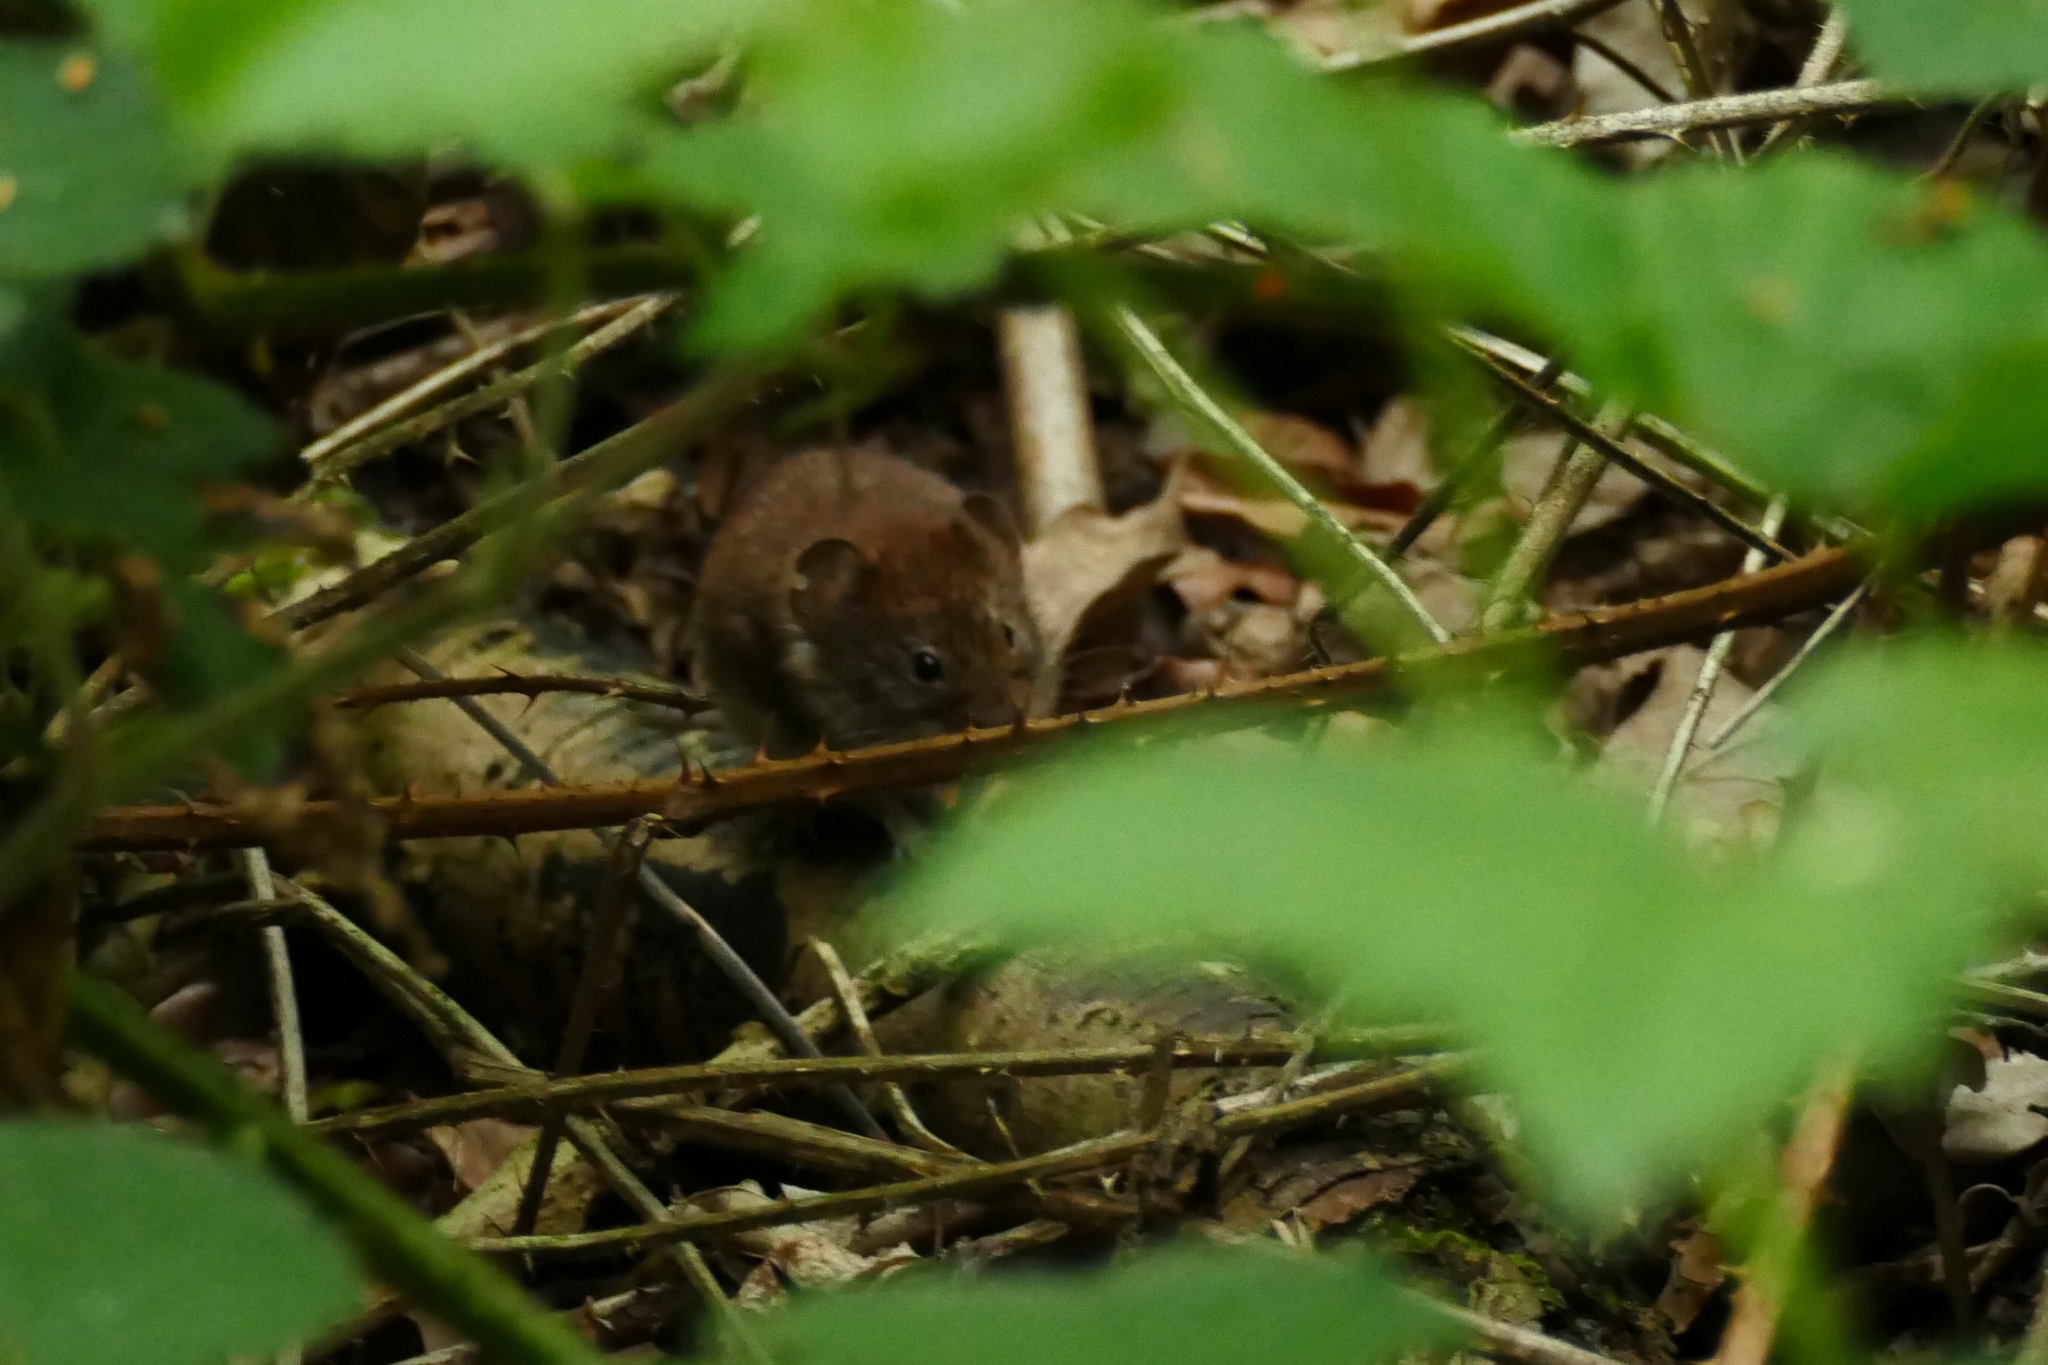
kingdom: Animalia
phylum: Chordata
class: Mammalia
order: Rodentia
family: Cricetidae
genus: Myodes
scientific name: Myodes glareolus
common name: Bank vole
